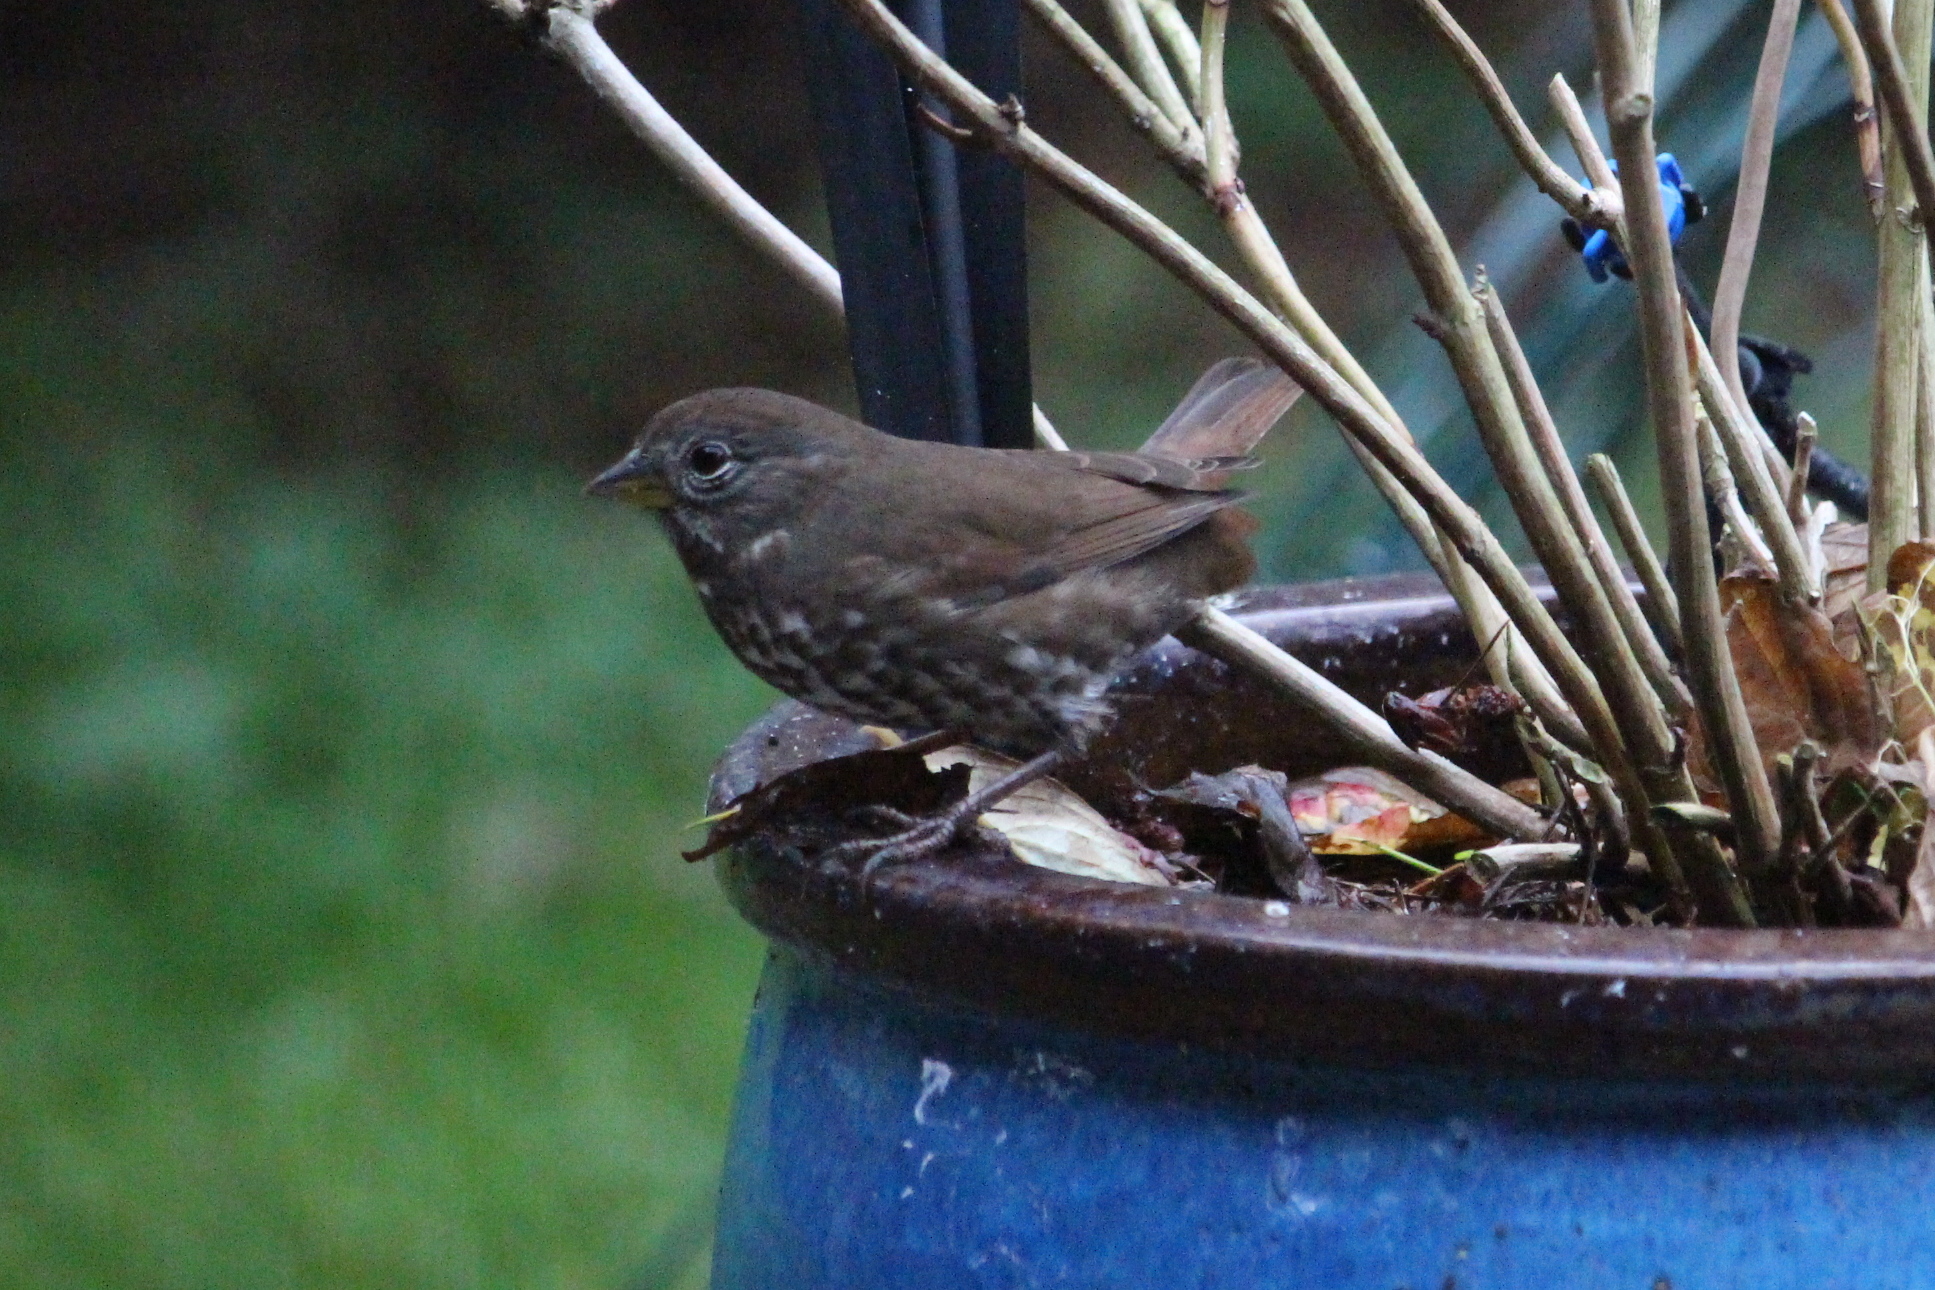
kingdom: Animalia
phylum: Chordata
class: Aves
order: Passeriformes
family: Passerellidae
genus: Passerella
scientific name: Passerella iliaca
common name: Fox sparrow
